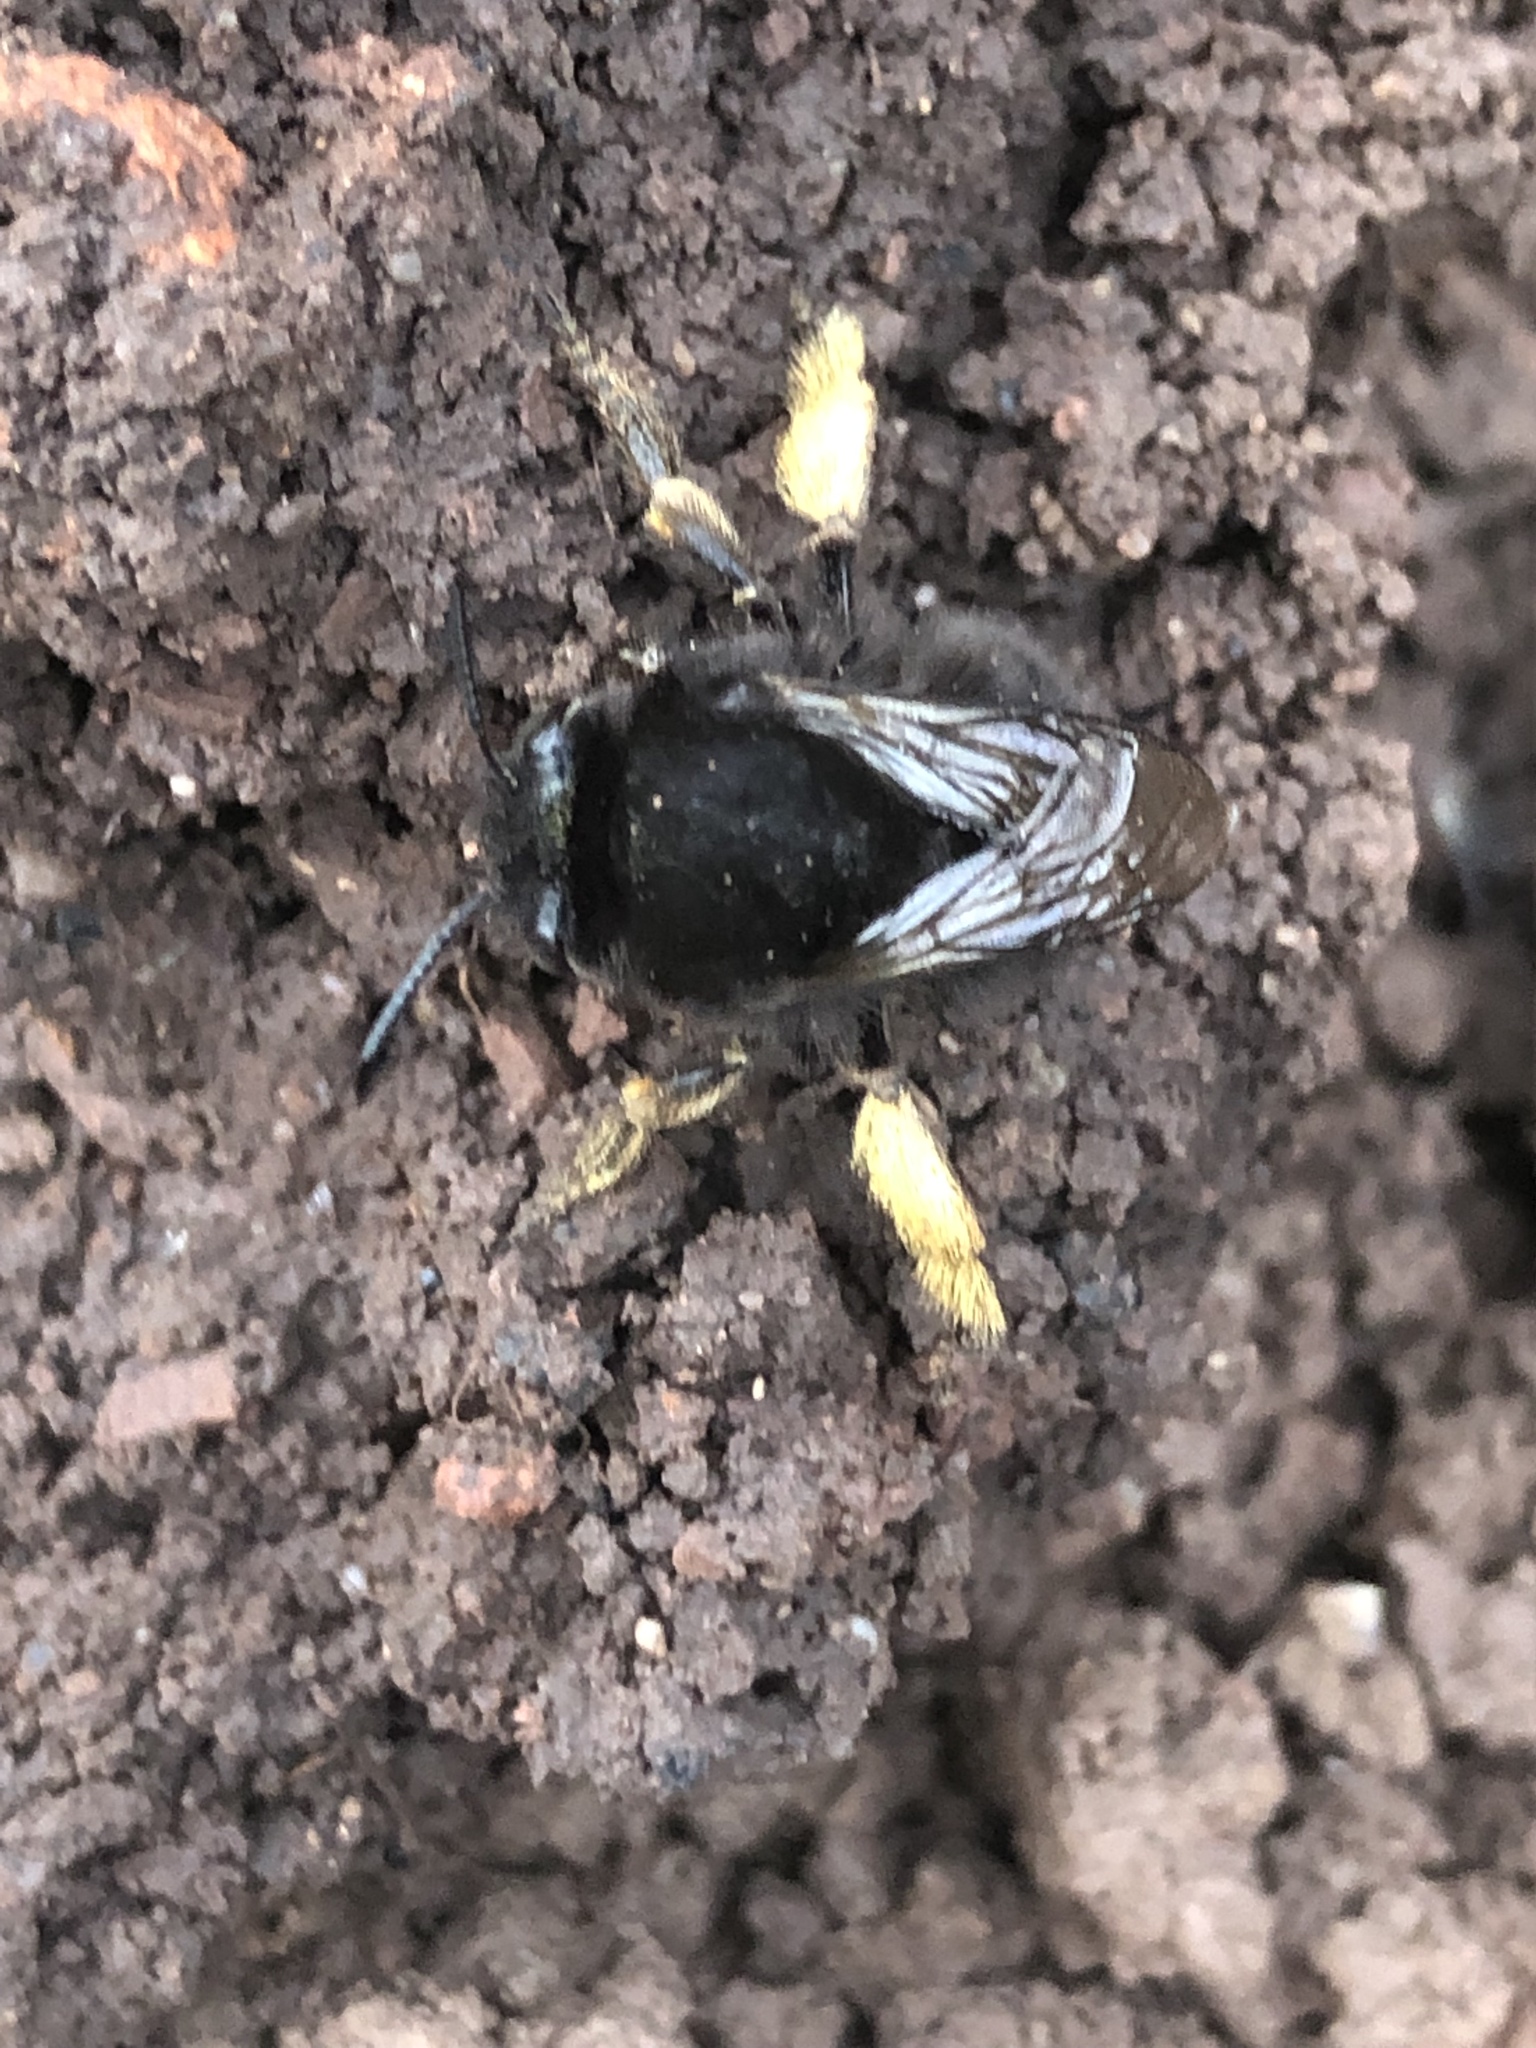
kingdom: Animalia
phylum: Arthropoda
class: Insecta
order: Hymenoptera
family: Apidae
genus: Anthophora
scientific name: Anthophora plumipes
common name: Hairy-footed flower bee
